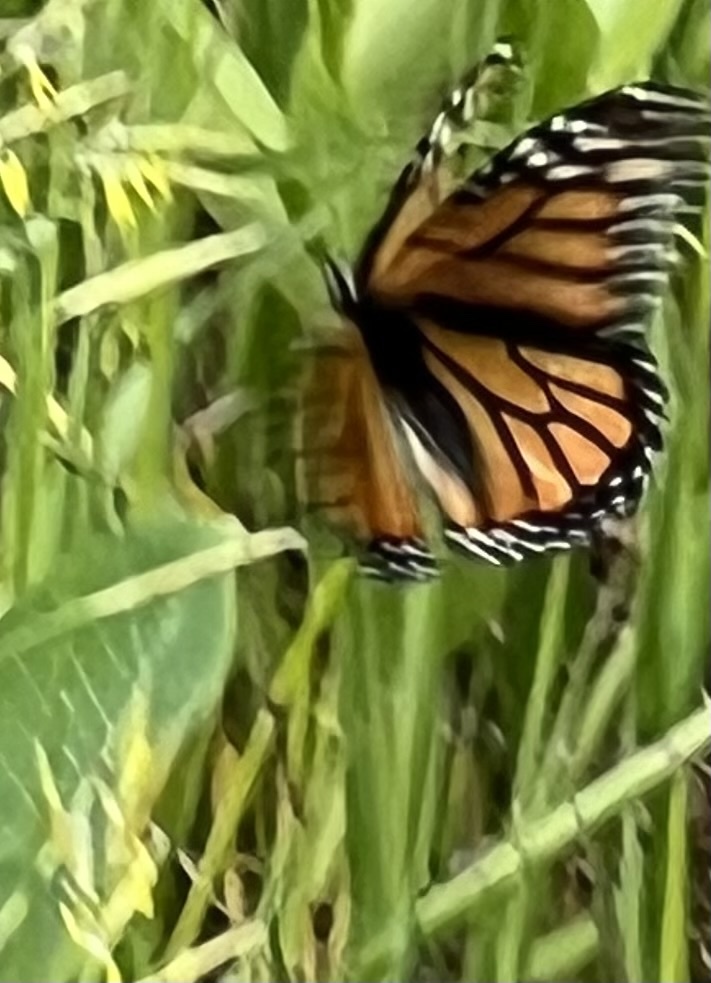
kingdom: Animalia
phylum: Arthropoda
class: Insecta
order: Lepidoptera
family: Nymphalidae
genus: Danaus
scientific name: Danaus plexippus
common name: Monarch
